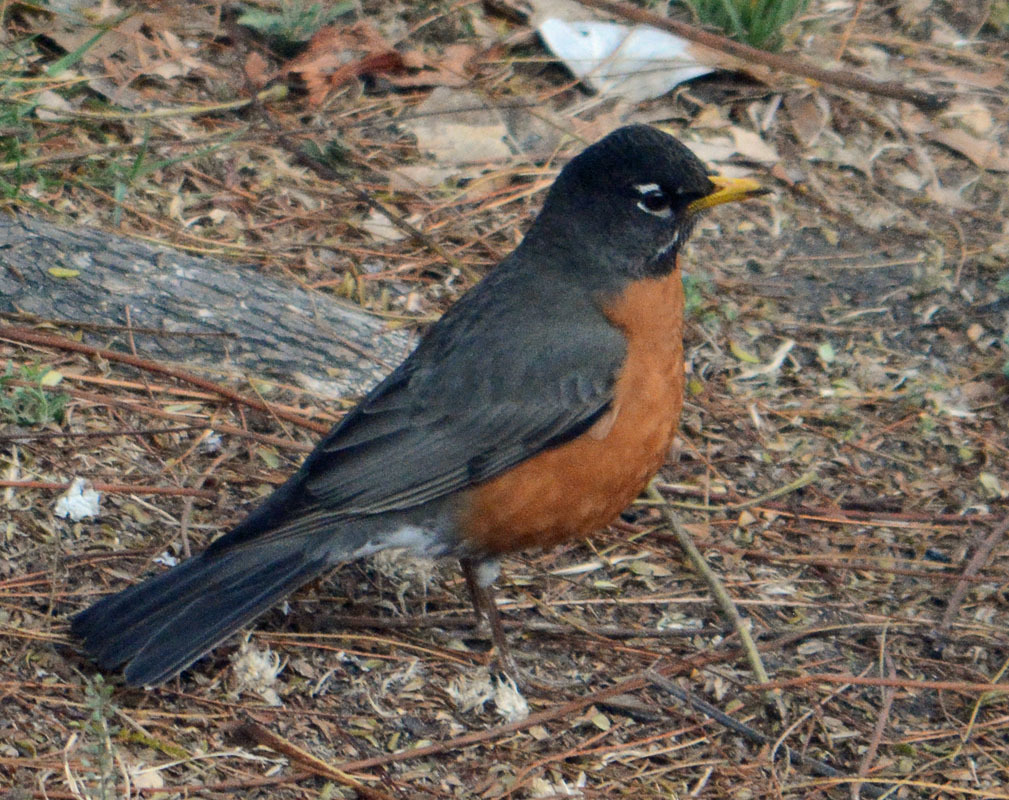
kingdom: Animalia
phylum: Chordata
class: Aves
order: Passeriformes
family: Turdidae
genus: Turdus
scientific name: Turdus migratorius
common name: American robin
